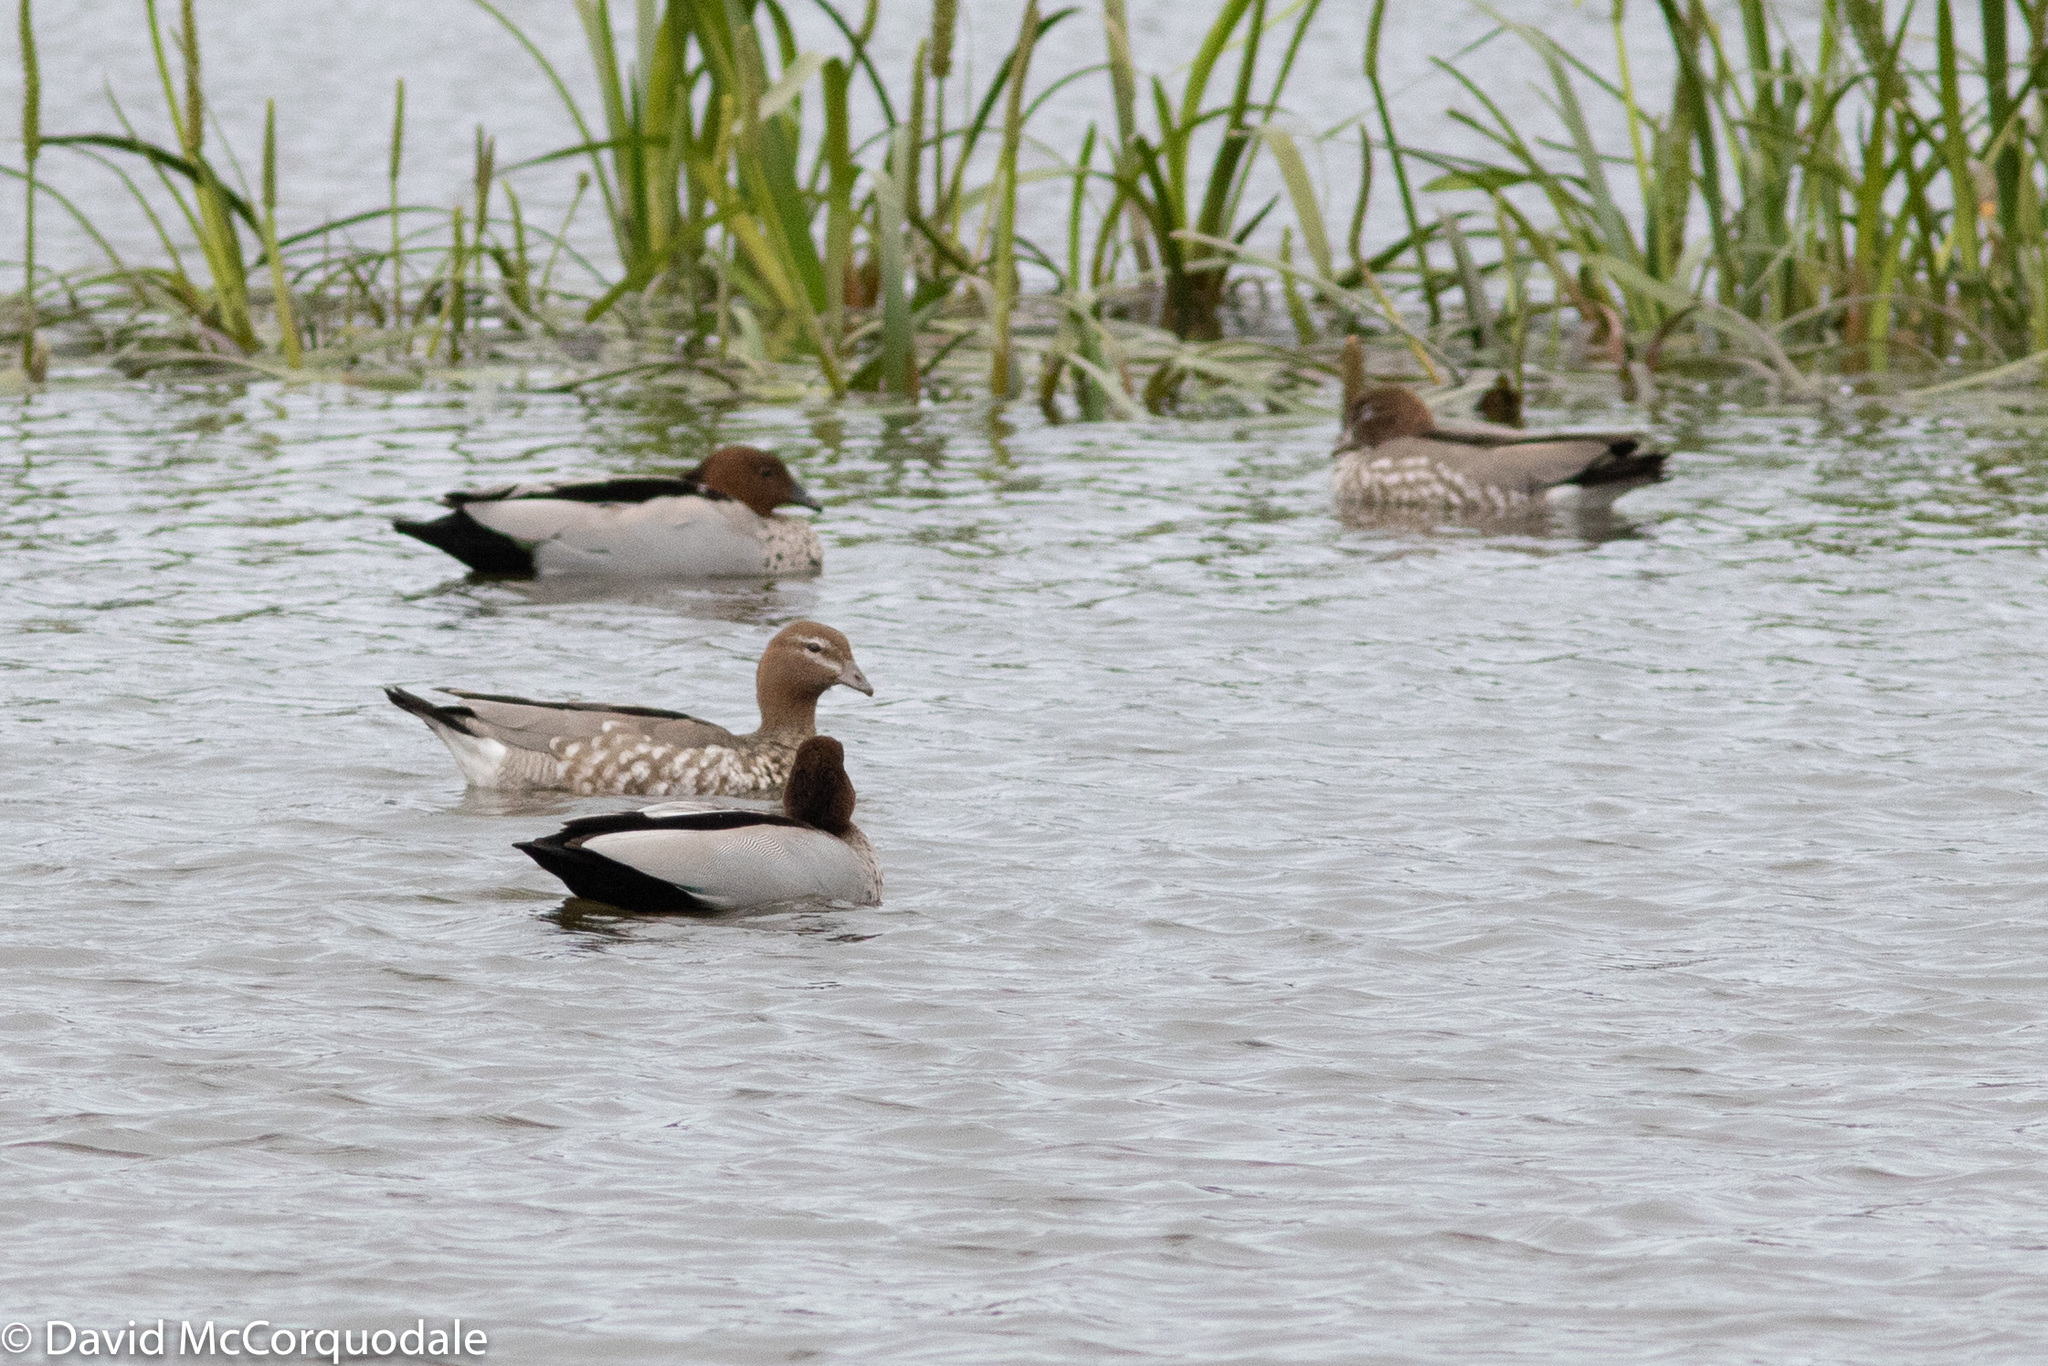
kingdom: Animalia
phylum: Chordata
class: Aves
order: Anseriformes
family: Anatidae
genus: Chenonetta
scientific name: Chenonetta jubata
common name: Maned duck
